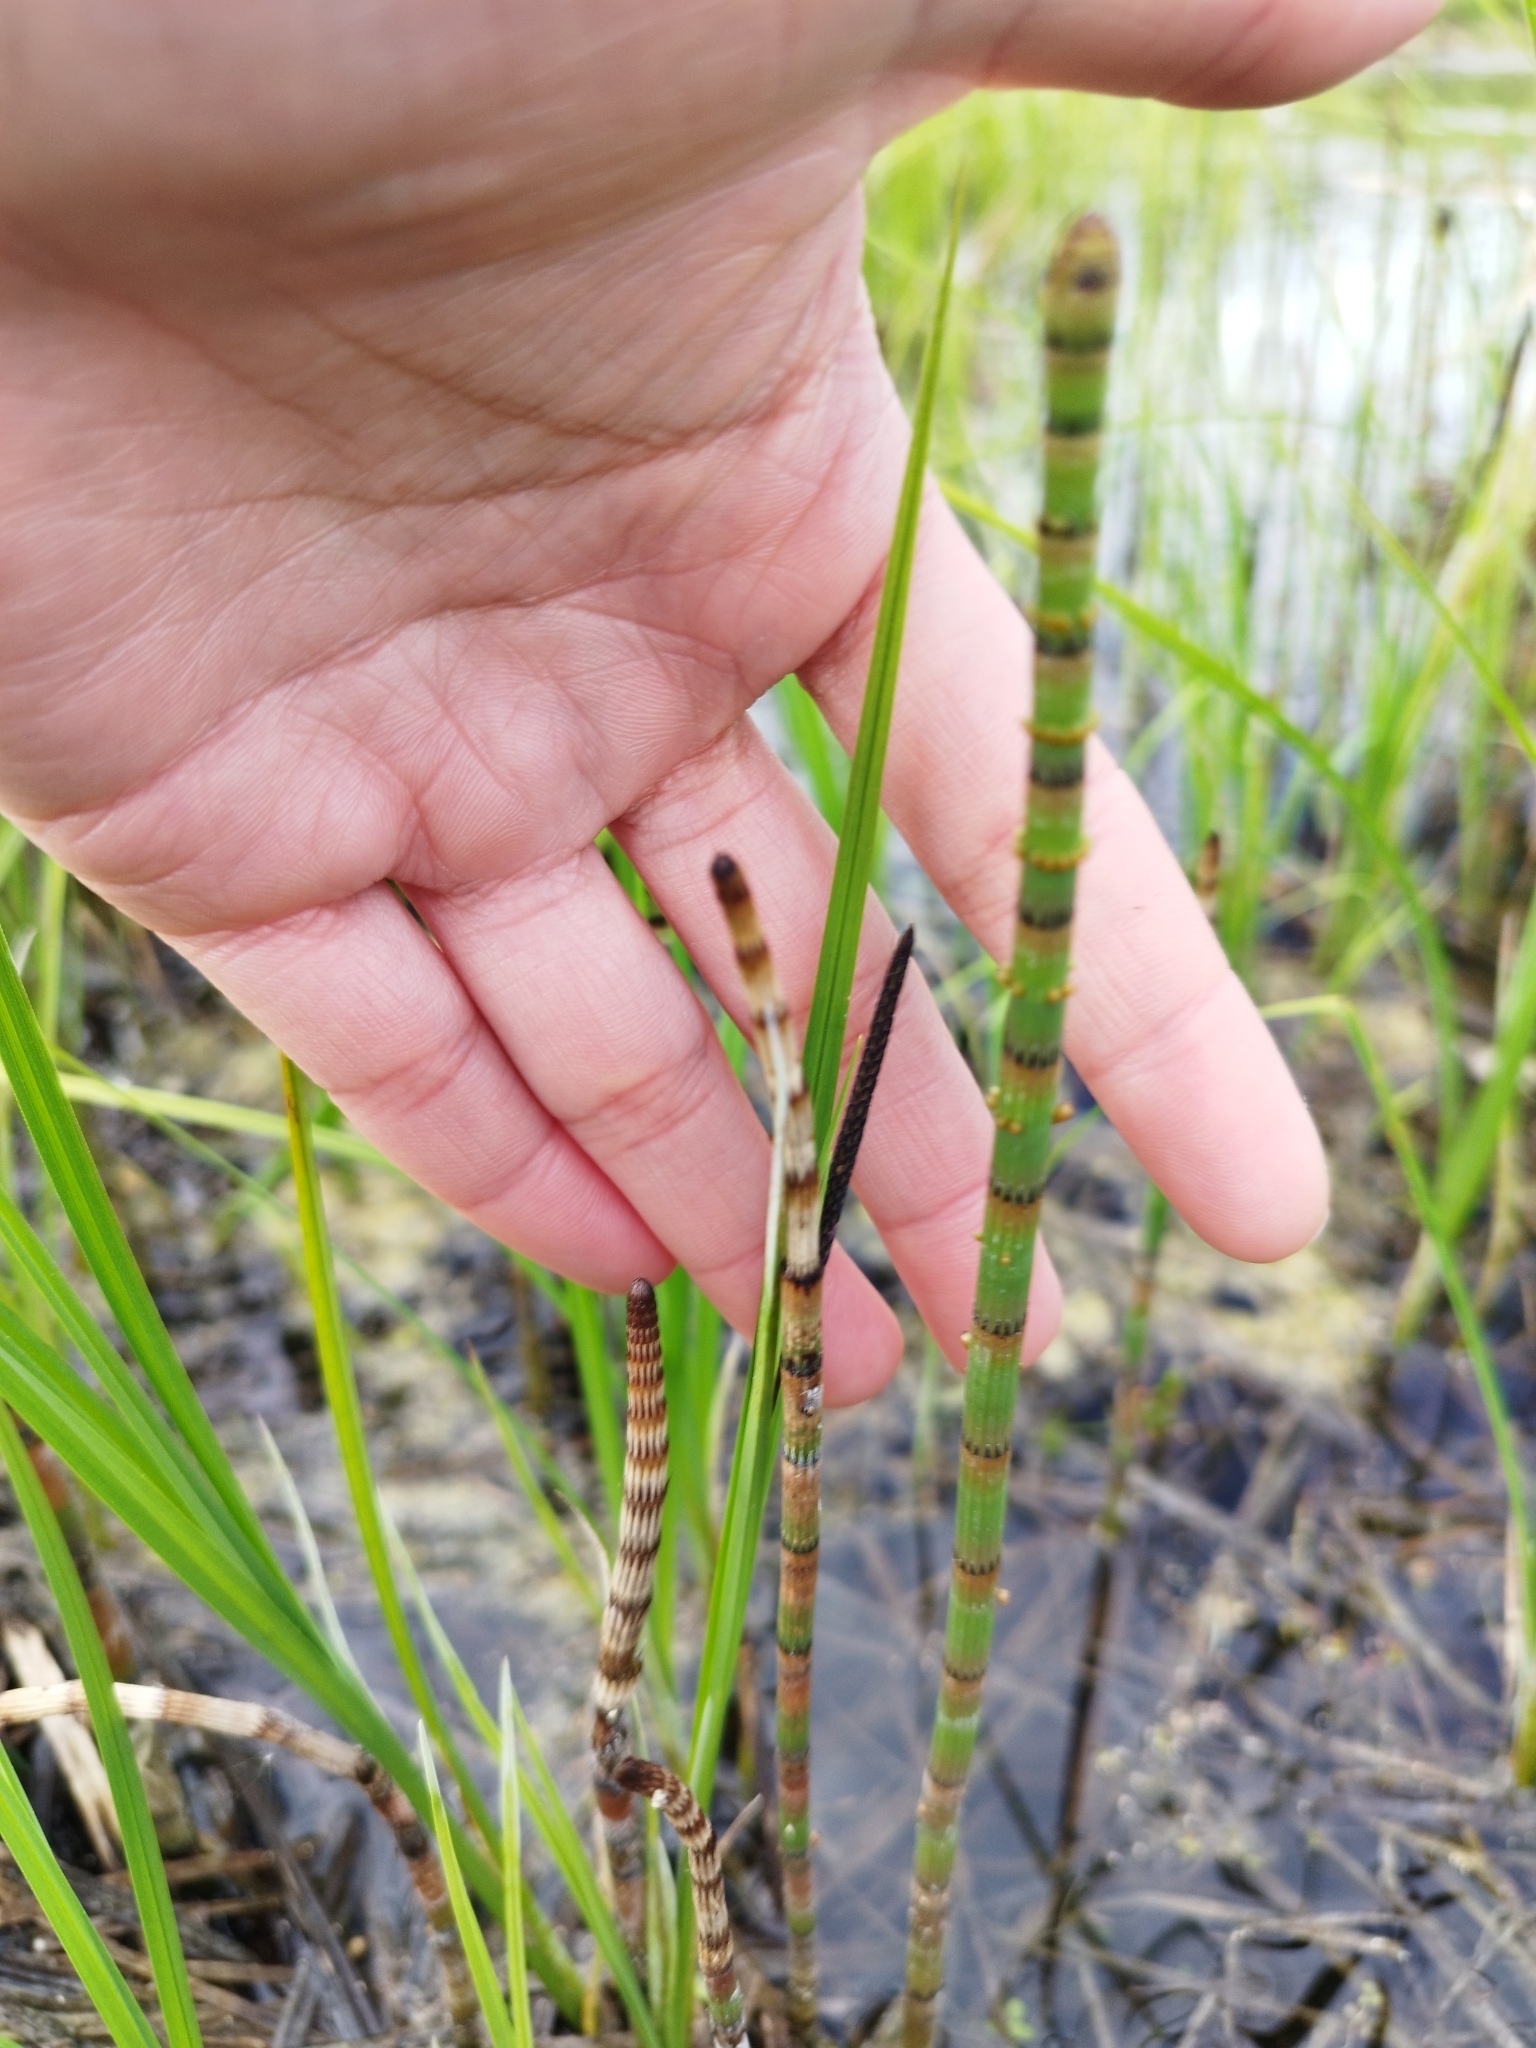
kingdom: Plantae
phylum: Tracheophyta
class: Polypodiopsida
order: Equisetales
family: Equisetaceae
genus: Equisetum
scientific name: Equisetum fluviatile
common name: Water horsetail
